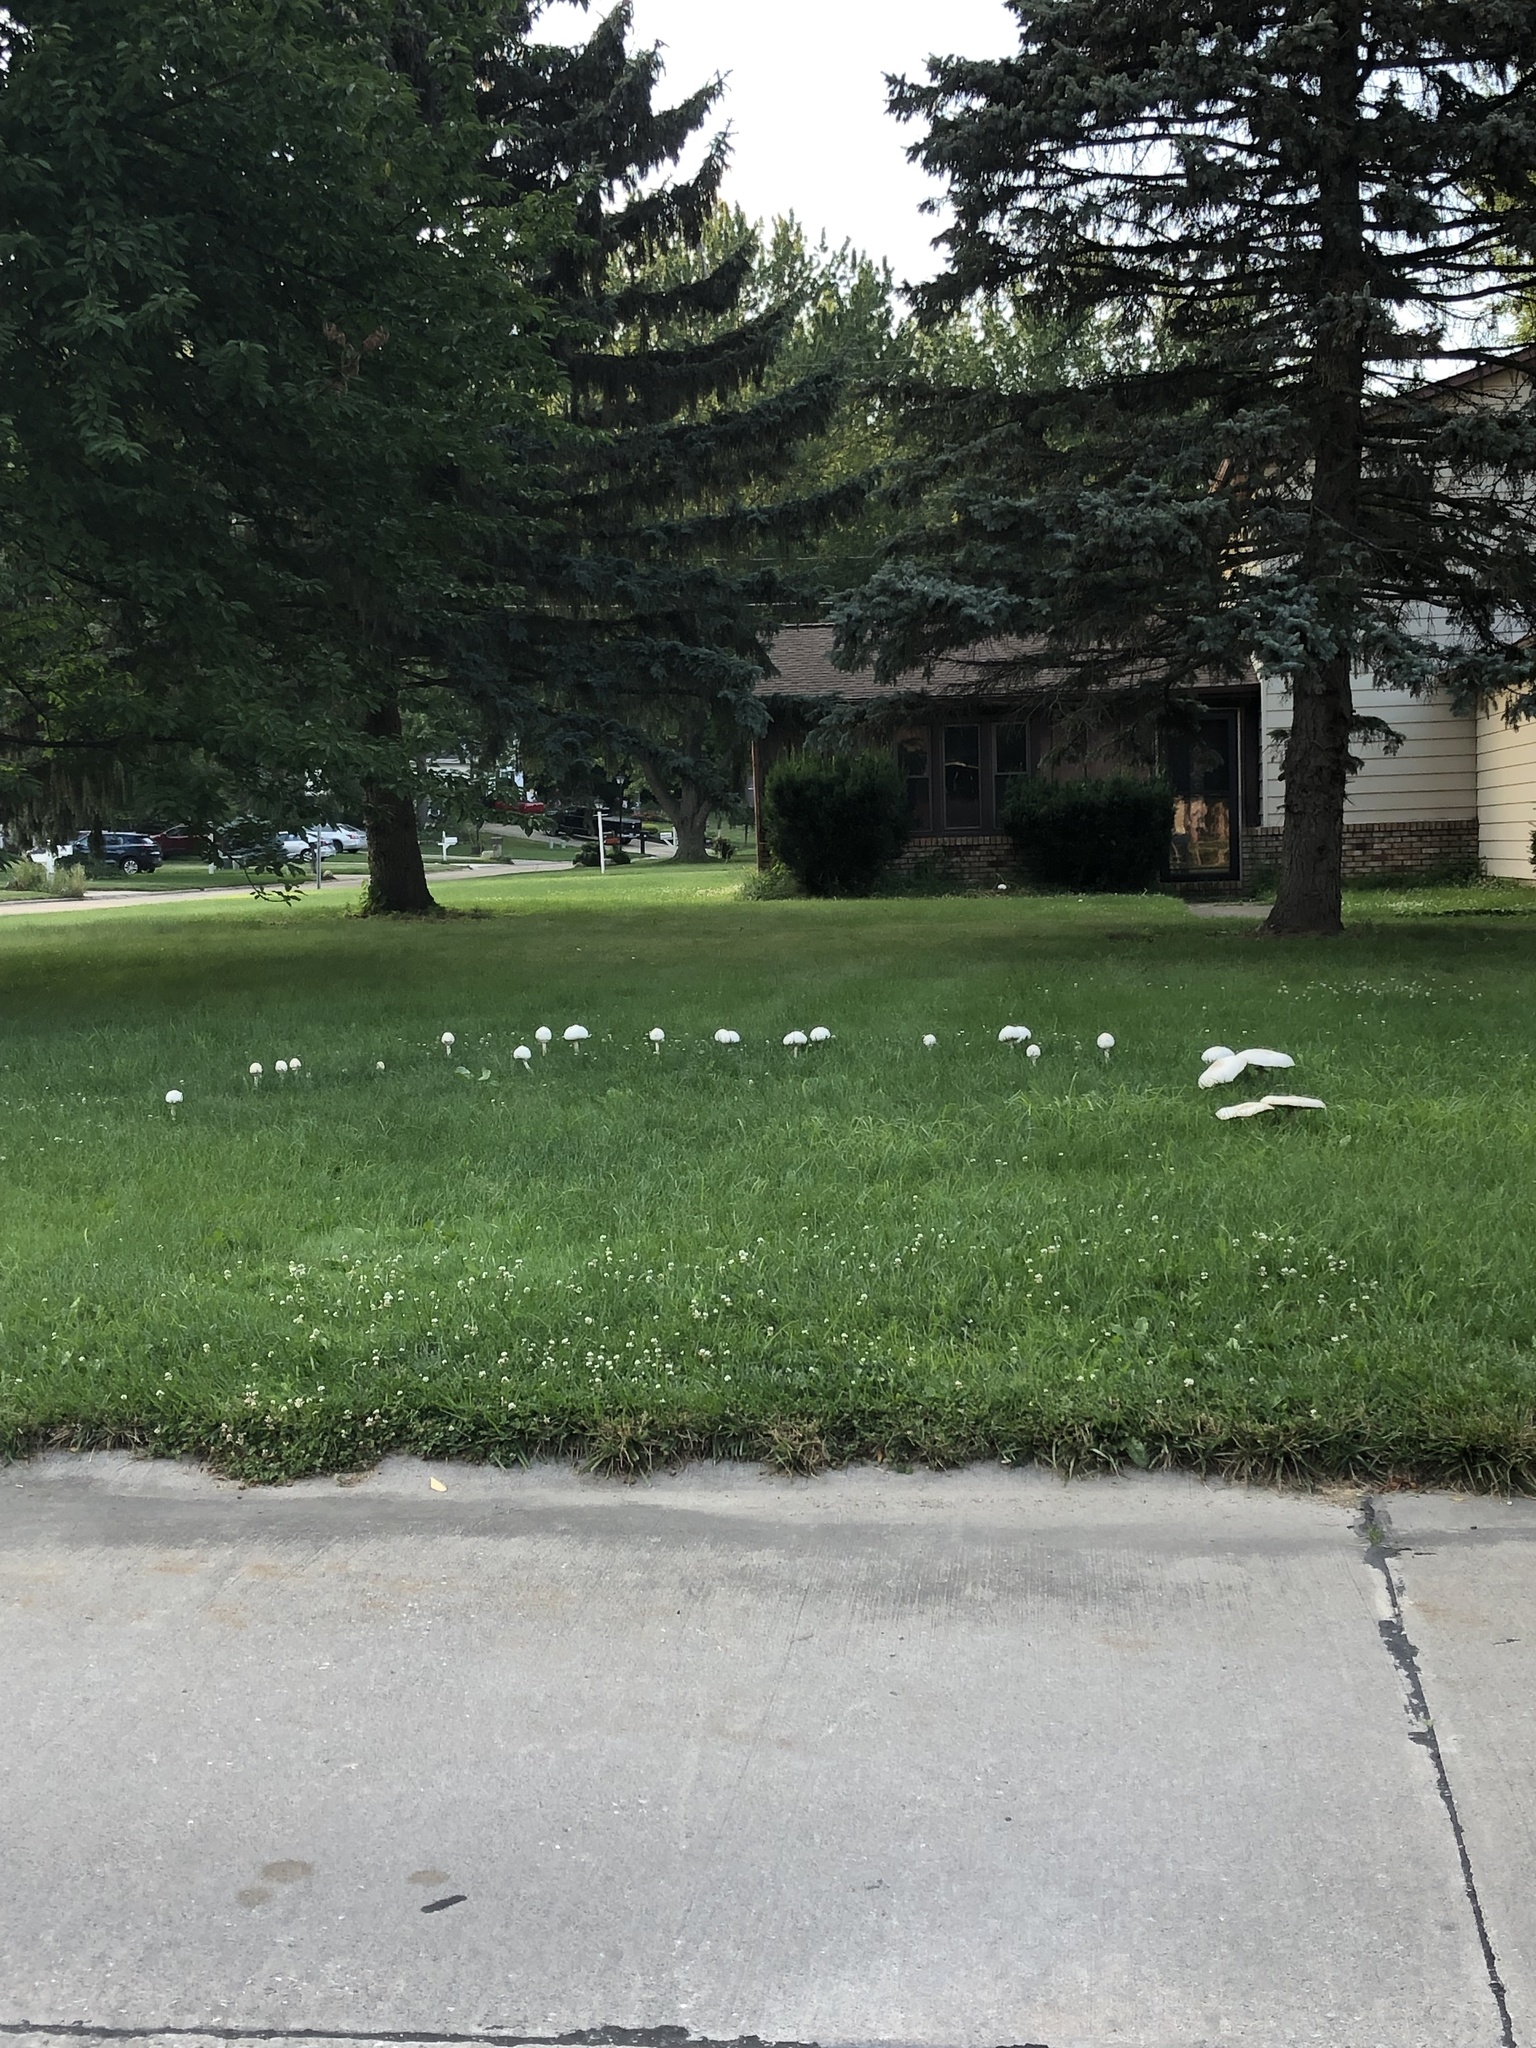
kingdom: Fungi
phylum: Basidiomycota
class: Agaricomycetes
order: Agaricales
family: Agaricaceae
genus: Chlorophyllum
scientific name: Chlorophyllum molybdites
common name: False parasol
